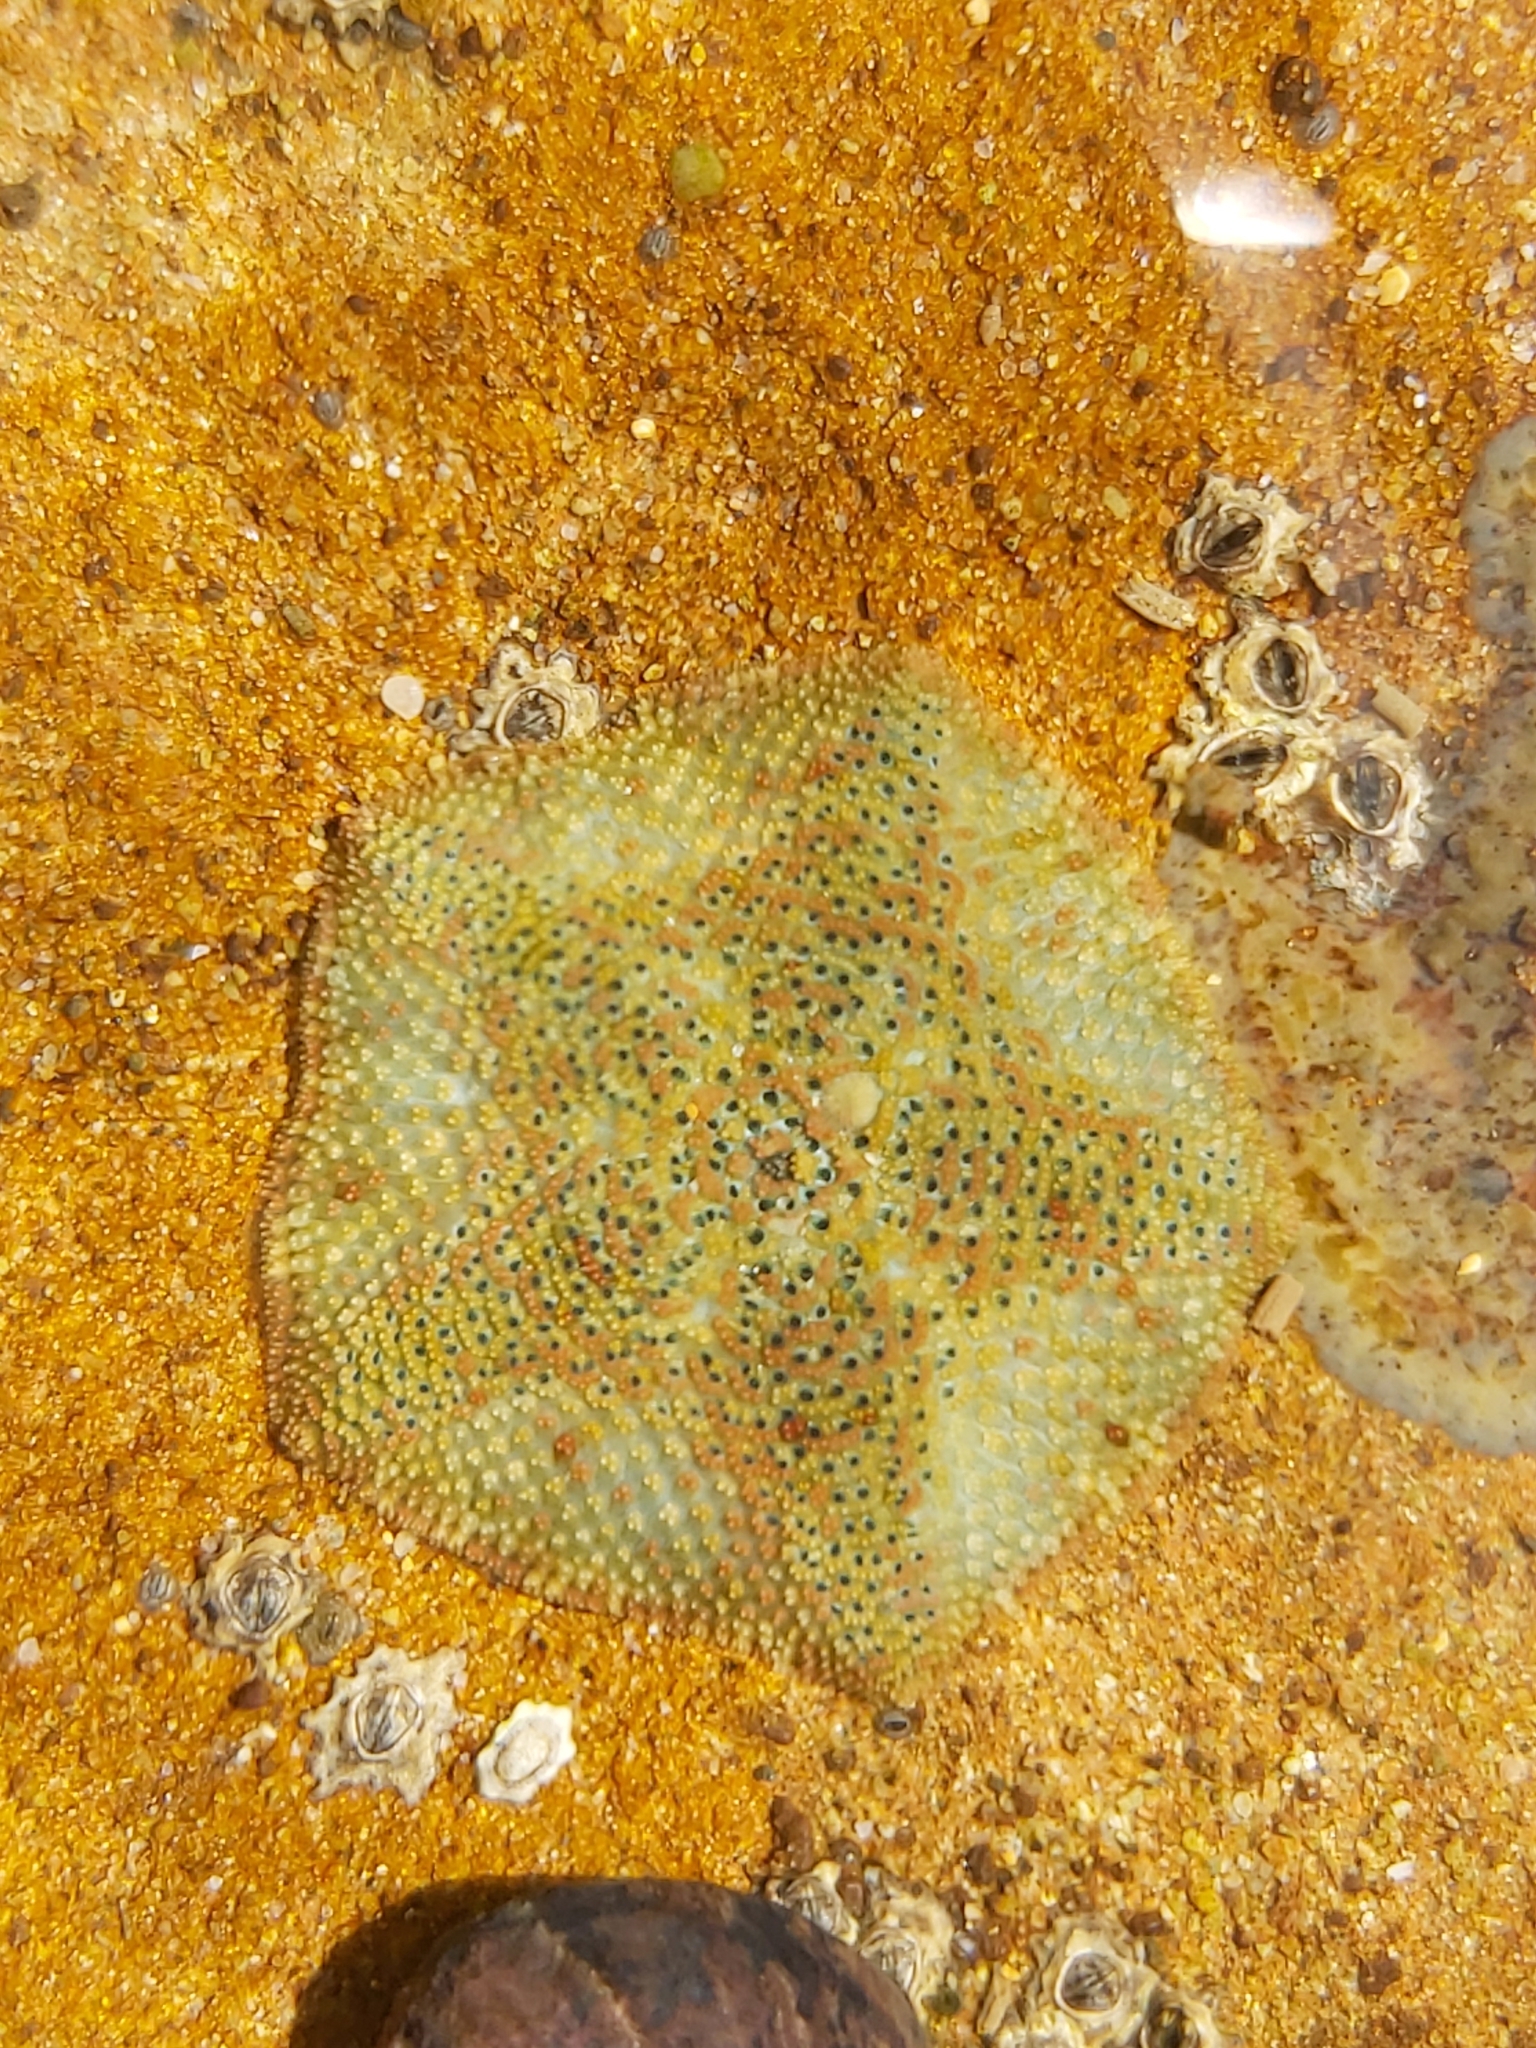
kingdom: Animalia
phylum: Echinodermata
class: Asteroidea
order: Valvatida
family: Asterinidae
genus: Parvulastra
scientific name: Parvulastra exigua
